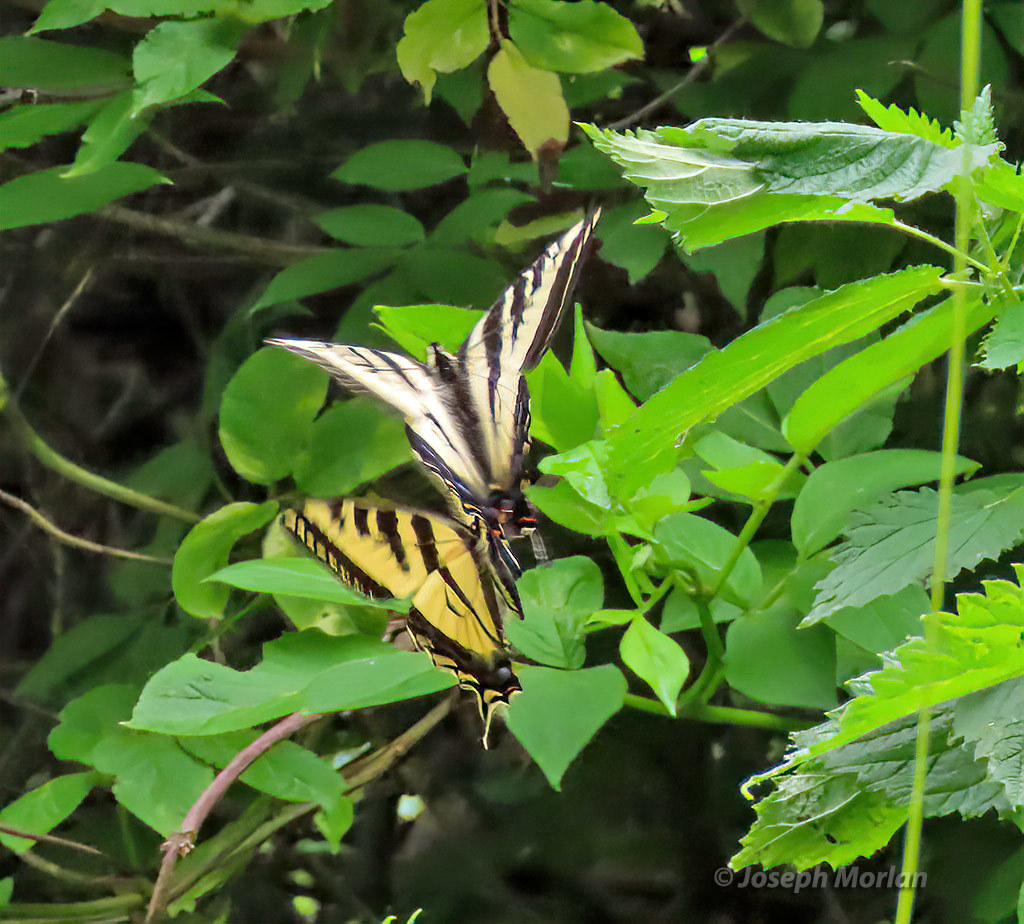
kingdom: Animalia
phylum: Arthropoda
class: Insecta
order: Lepidoptera
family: Papilionidae
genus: Papilio
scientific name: Papilio eurymedon
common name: Pale tiger swallowtail
